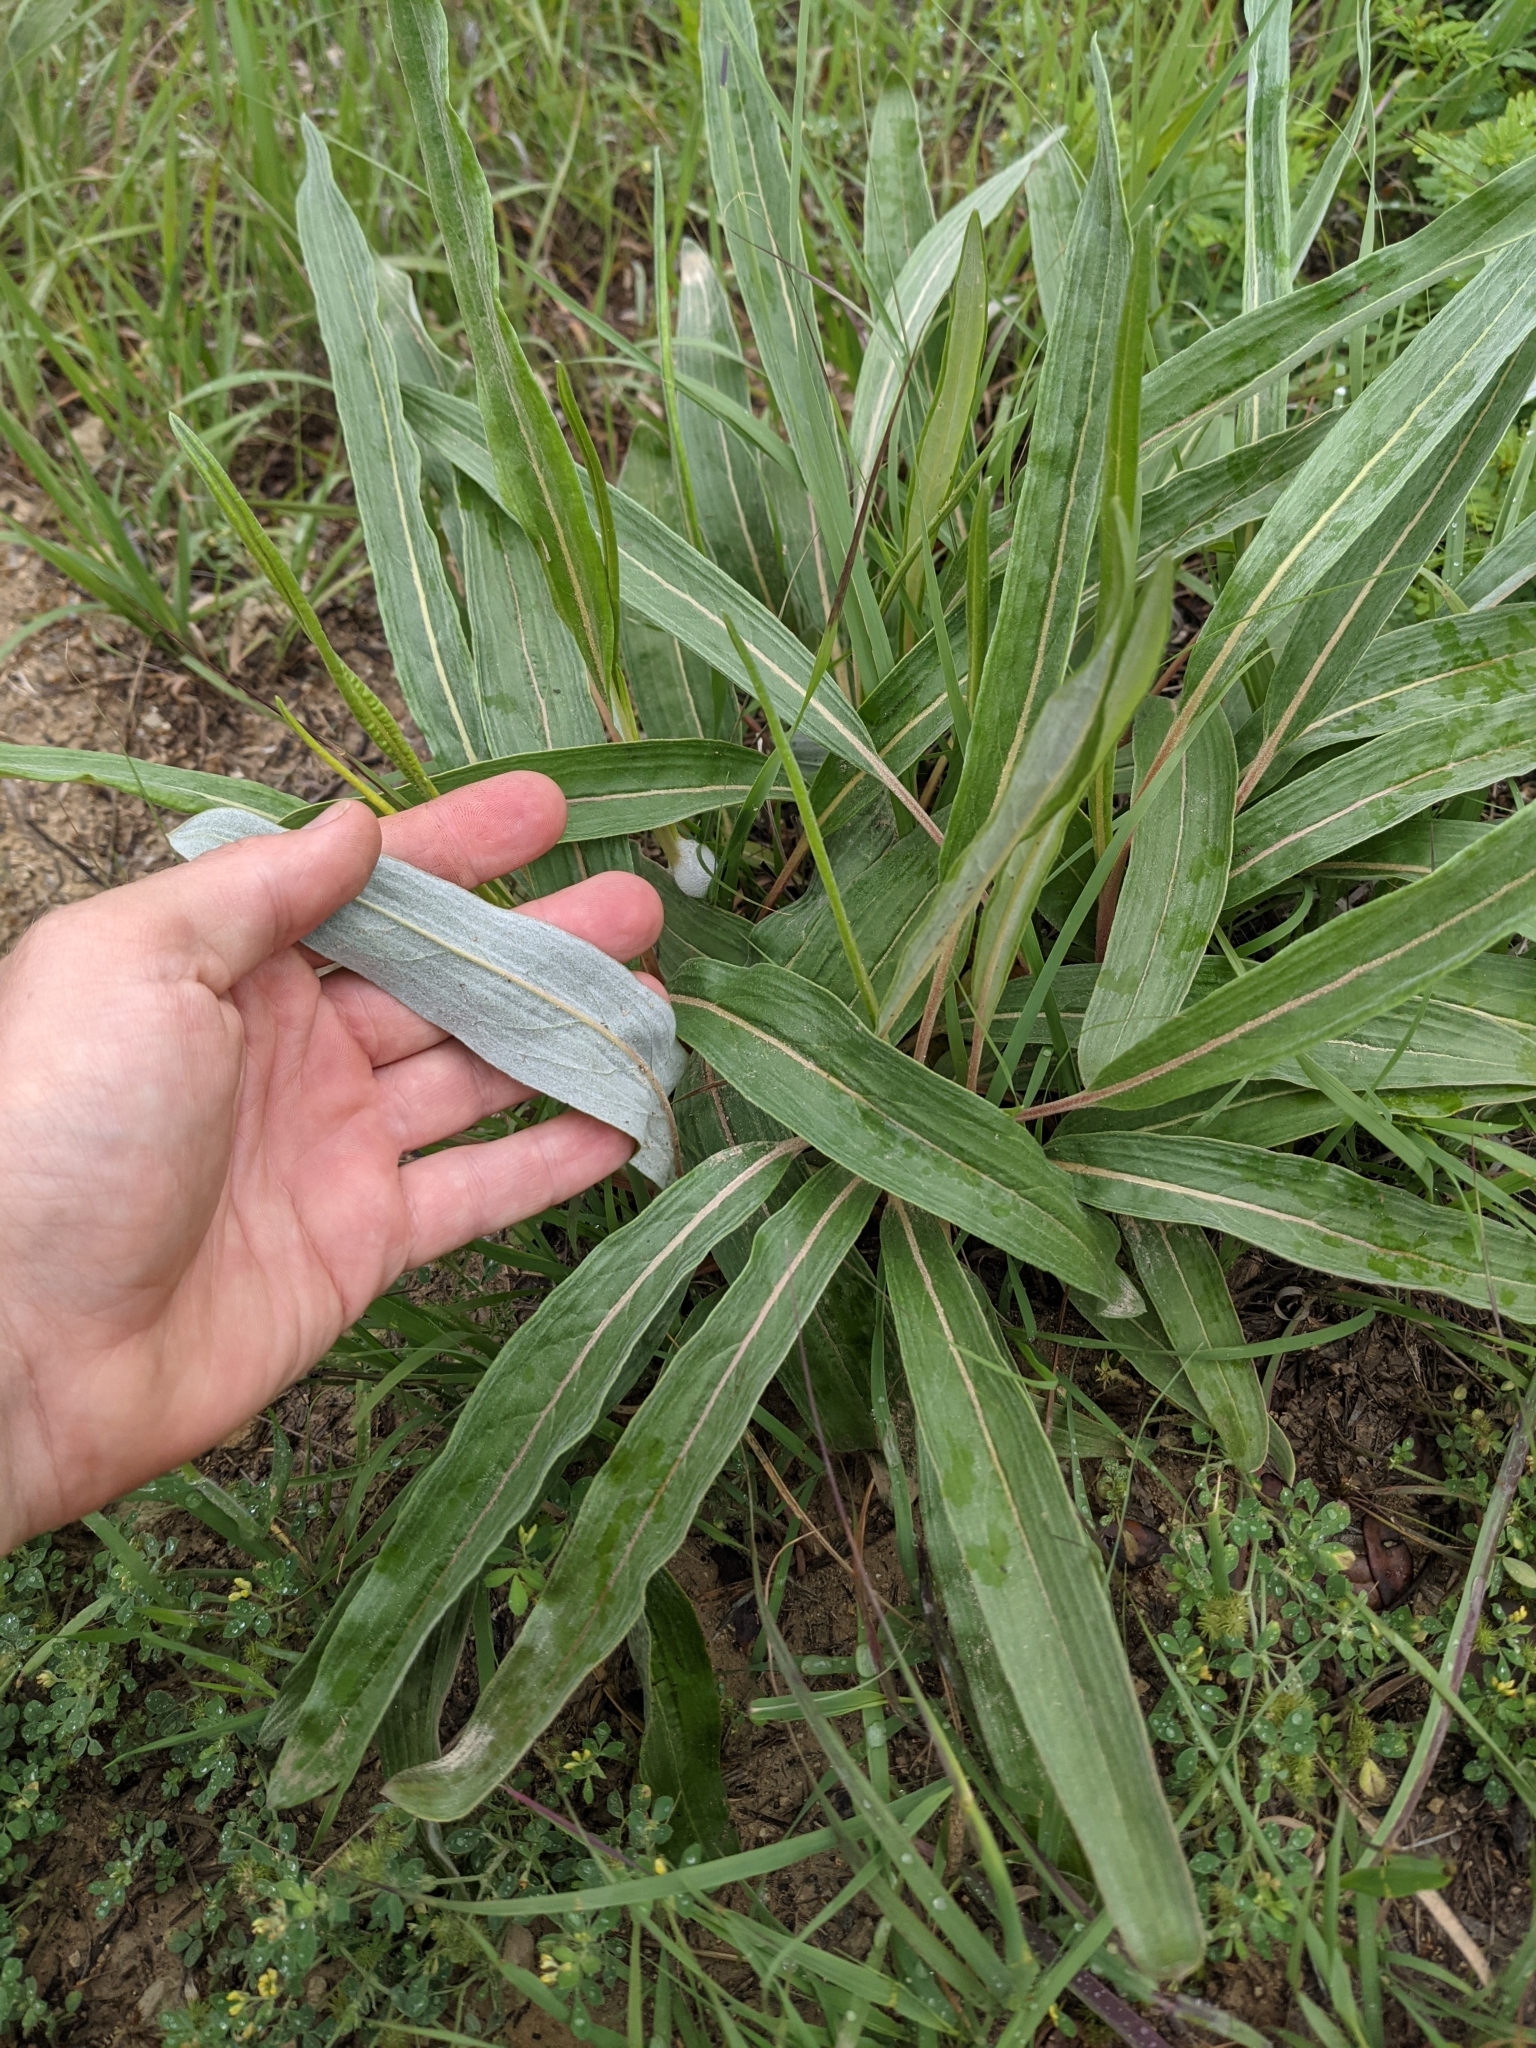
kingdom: Plantae
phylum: Tracheophyta
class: Magnoliopsida
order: Caryophyllales
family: Polygonaceae
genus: Eriogonum
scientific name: Eriogonum longifolium
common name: Longleaf wild buckwheat
